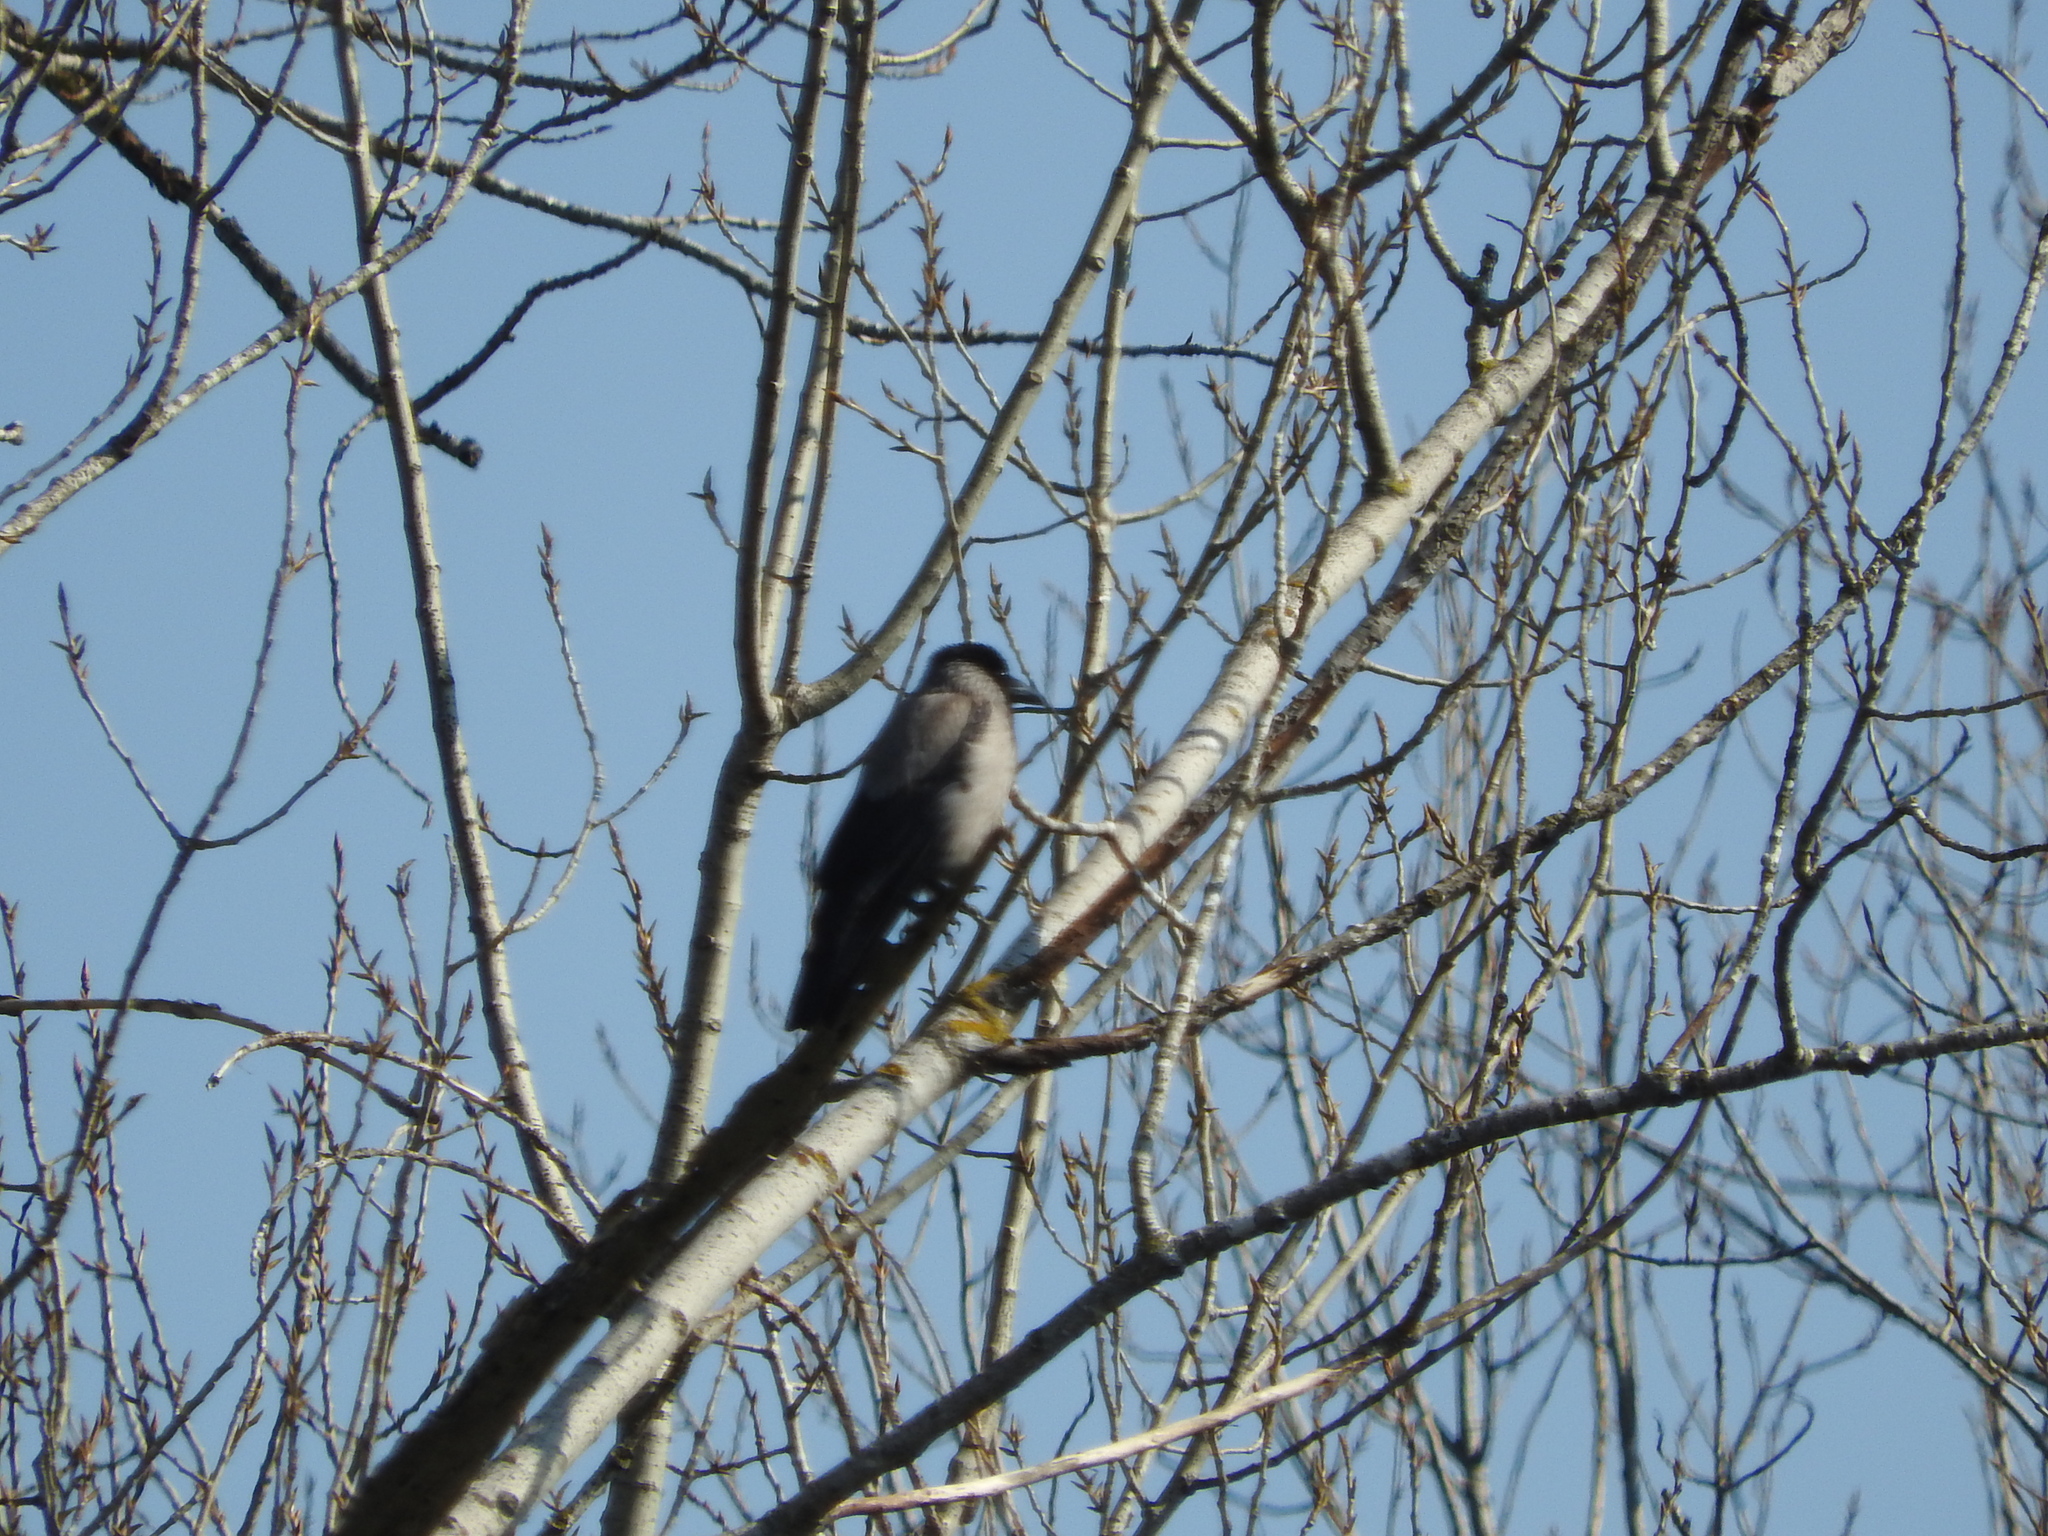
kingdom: Animalia
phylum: Chordata
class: Aves
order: Passeriformes
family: Corvidae
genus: Corvus
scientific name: Corvus cornix
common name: Hooded crow
